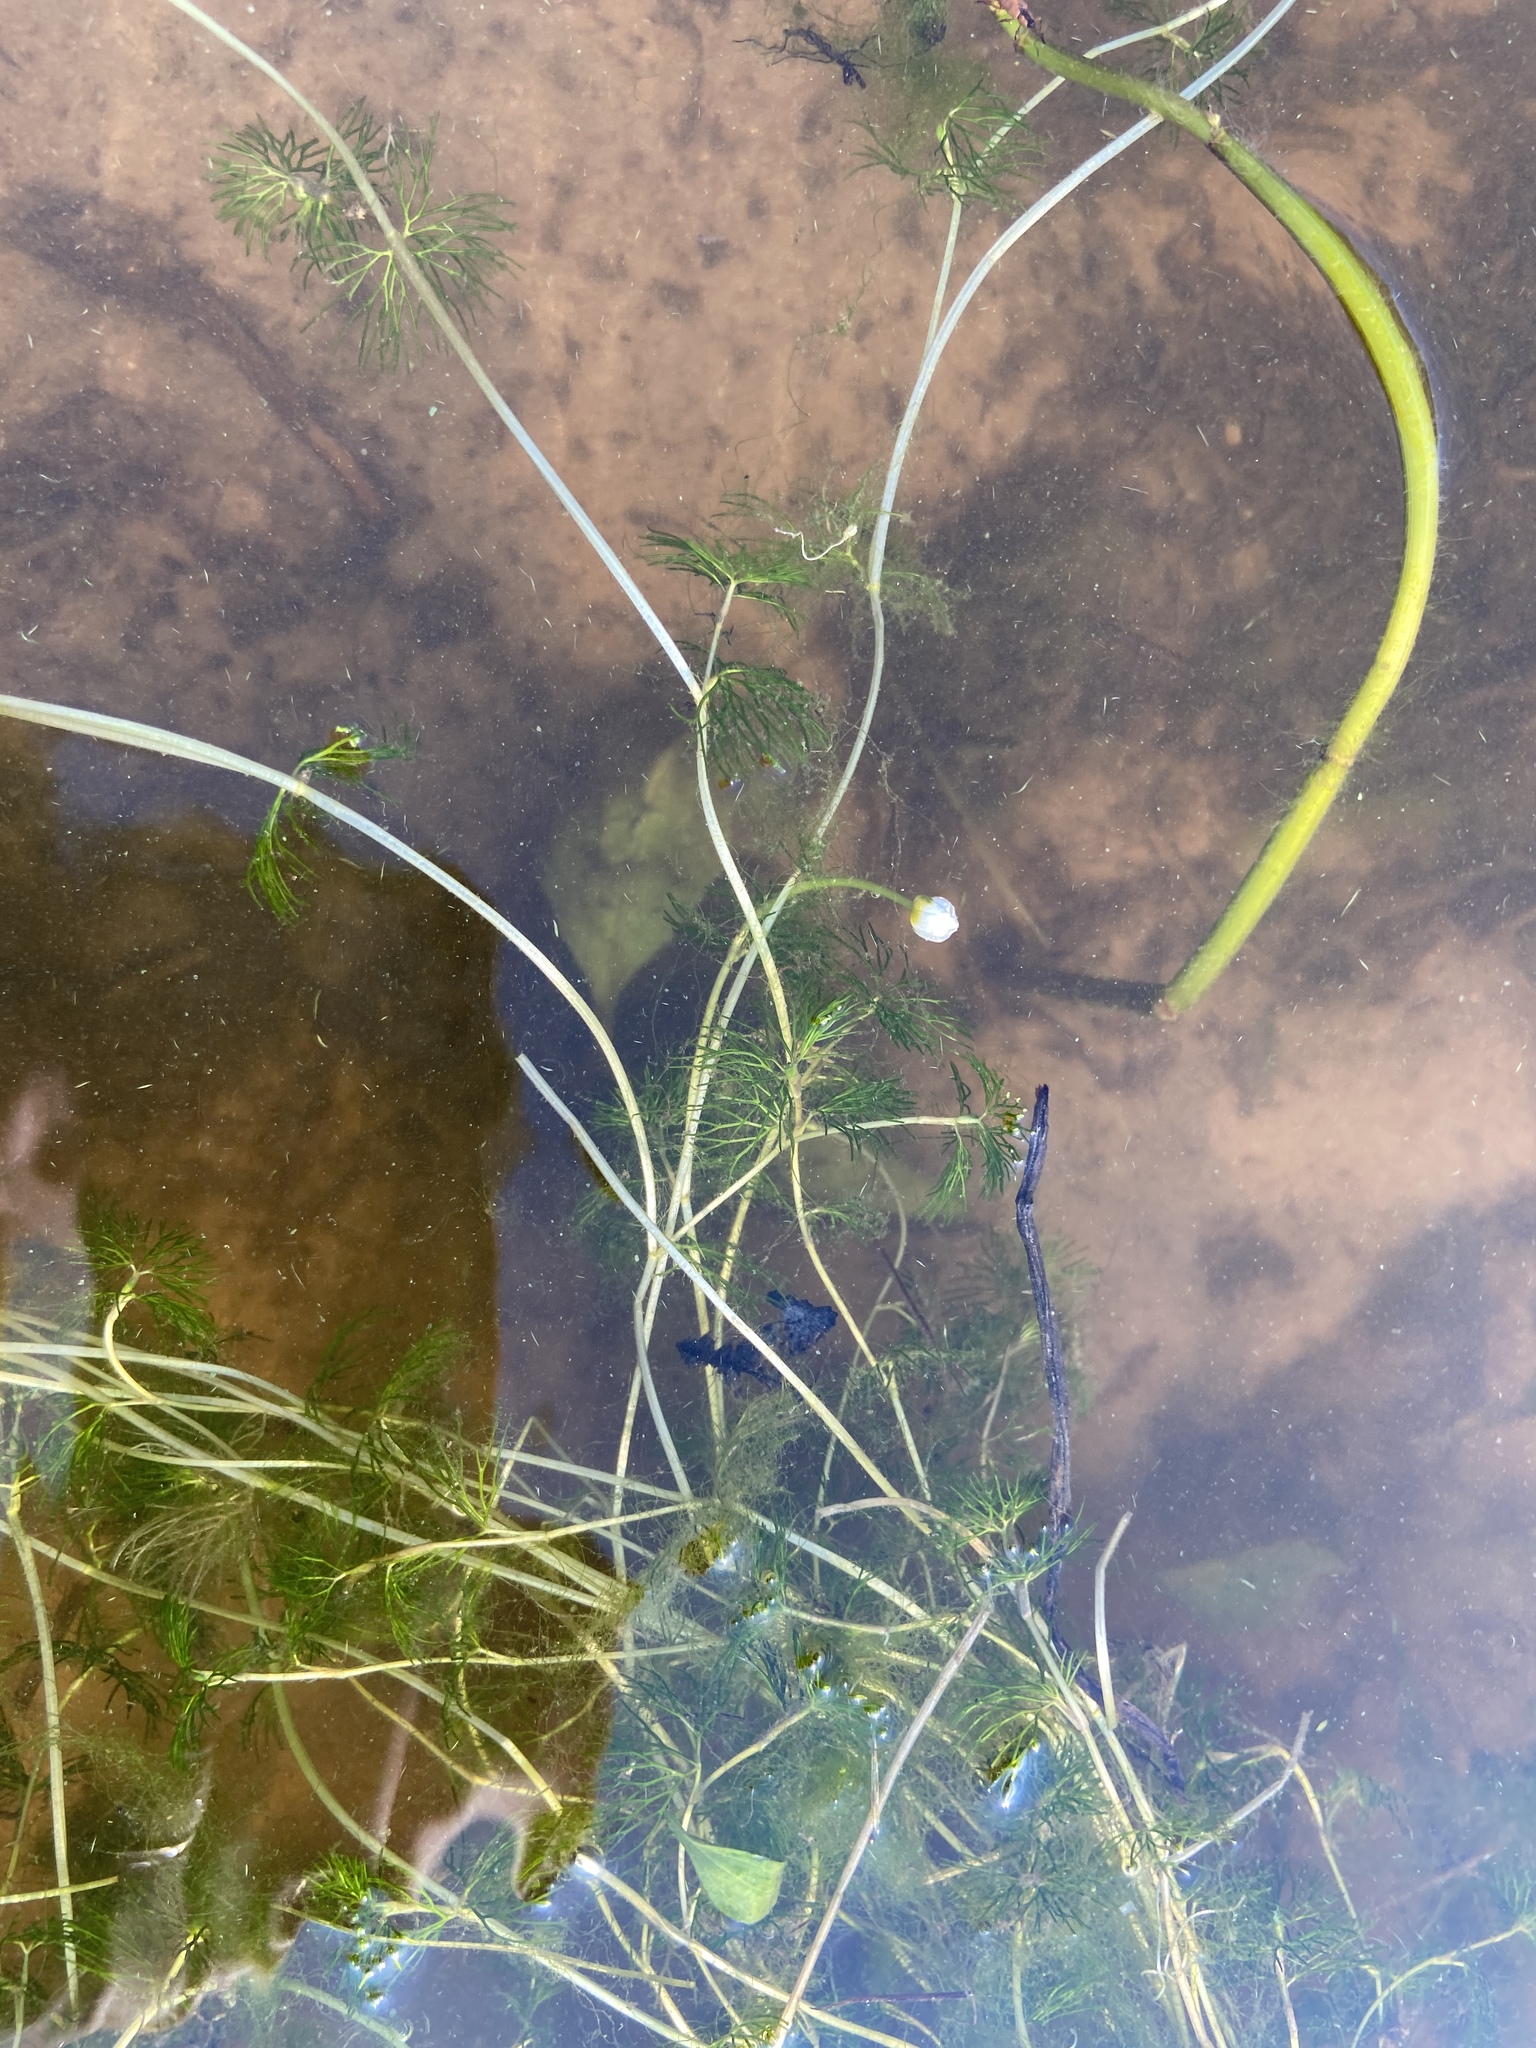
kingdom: Plantae
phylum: Tracheophyta
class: Magnoliopsida
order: Ranunculales
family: Ranunculaceae
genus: Ranunculus
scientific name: Ranunculus circinatus
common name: Fan-leaved water-crowfoot
